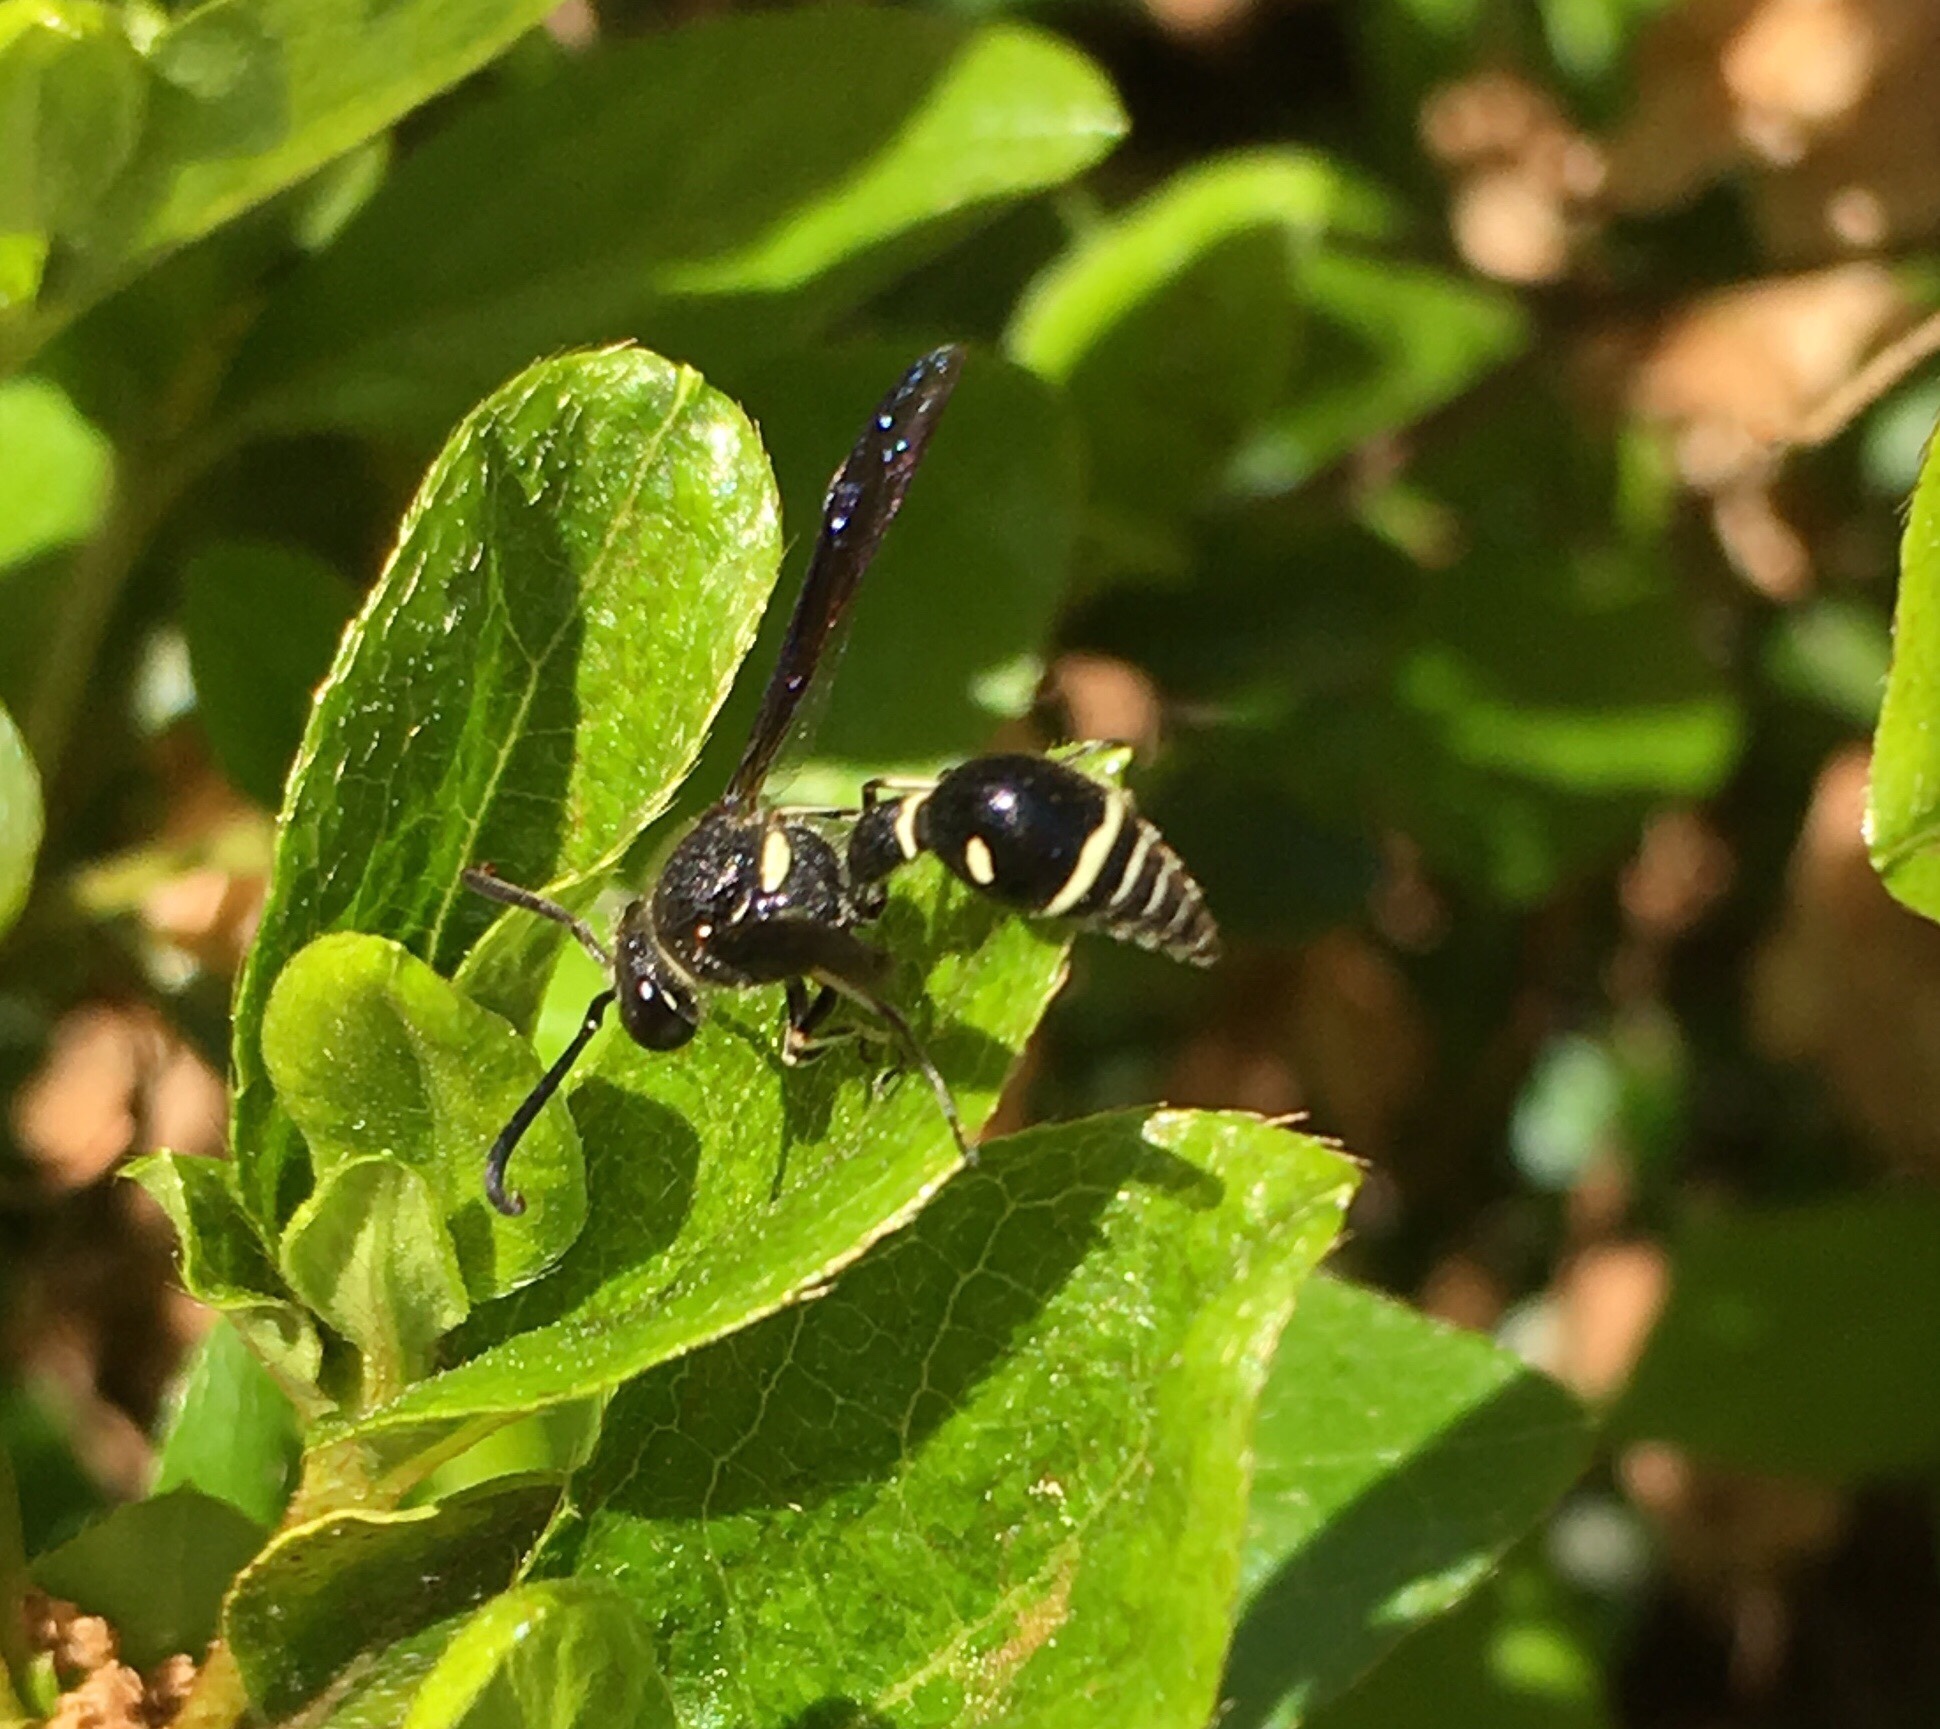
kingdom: Animalia
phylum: Arthropoda
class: Insecta
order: Hymenoptera
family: Vespidae
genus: Eumenes
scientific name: Eumenes fraternus
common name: Fraternal potter wasp
